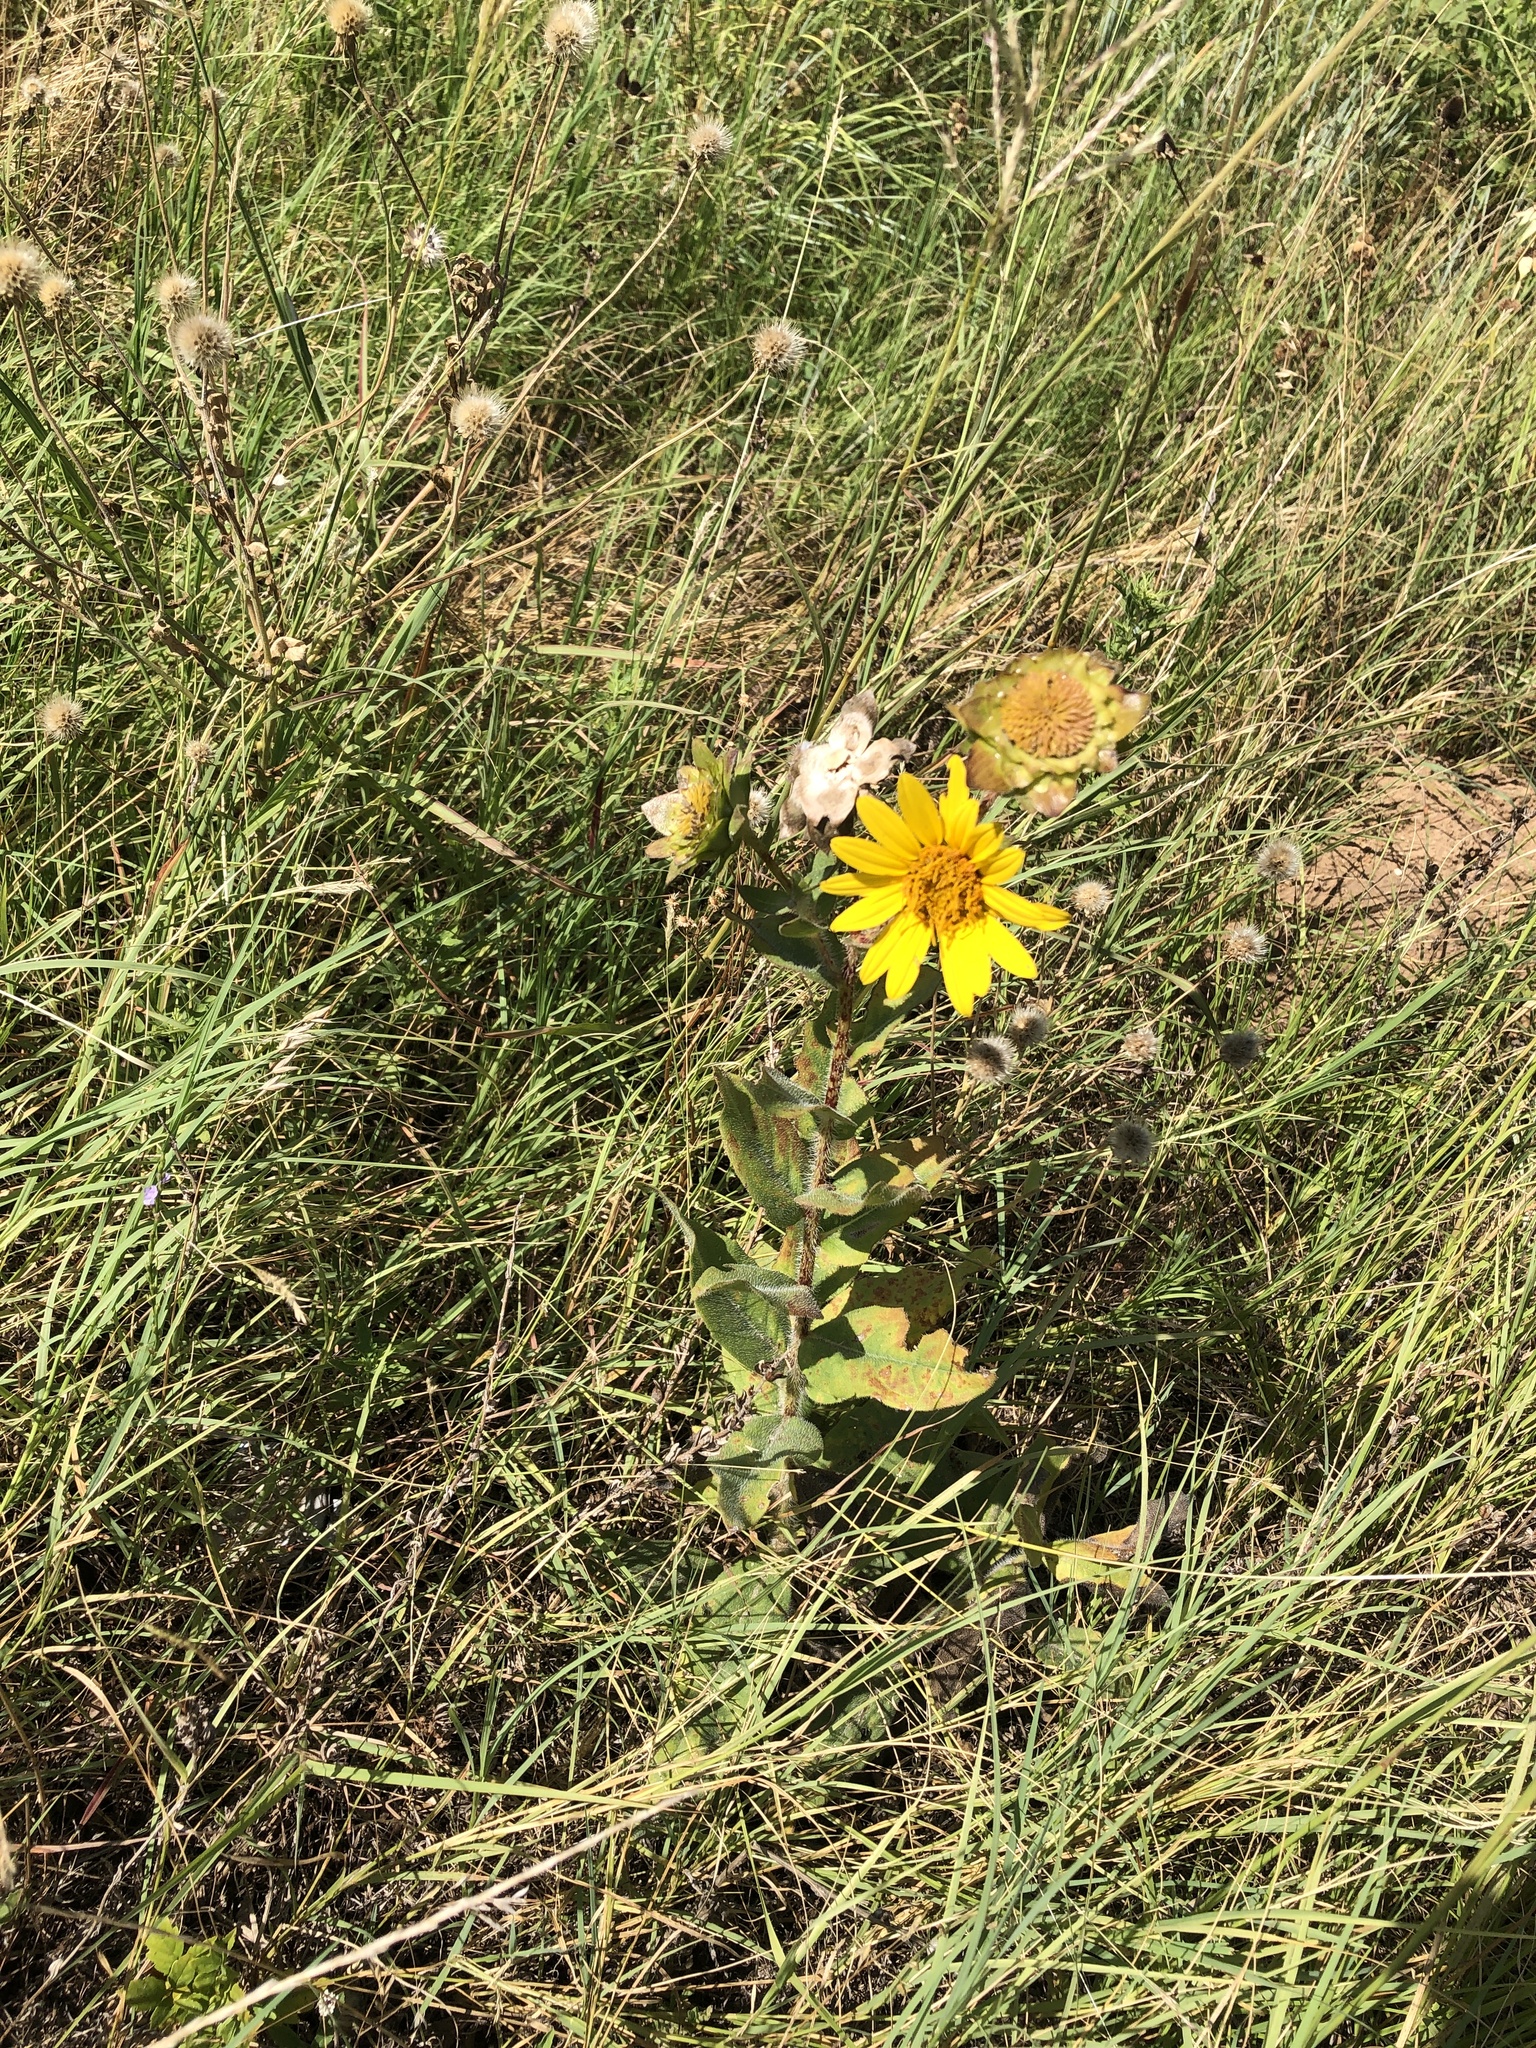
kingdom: Plantae
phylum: Tracheophyta
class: Magnoliopsida
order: Asterales
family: Asteraceae
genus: Silphium
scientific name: Silphium radula
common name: Roughleaf rosinweed
